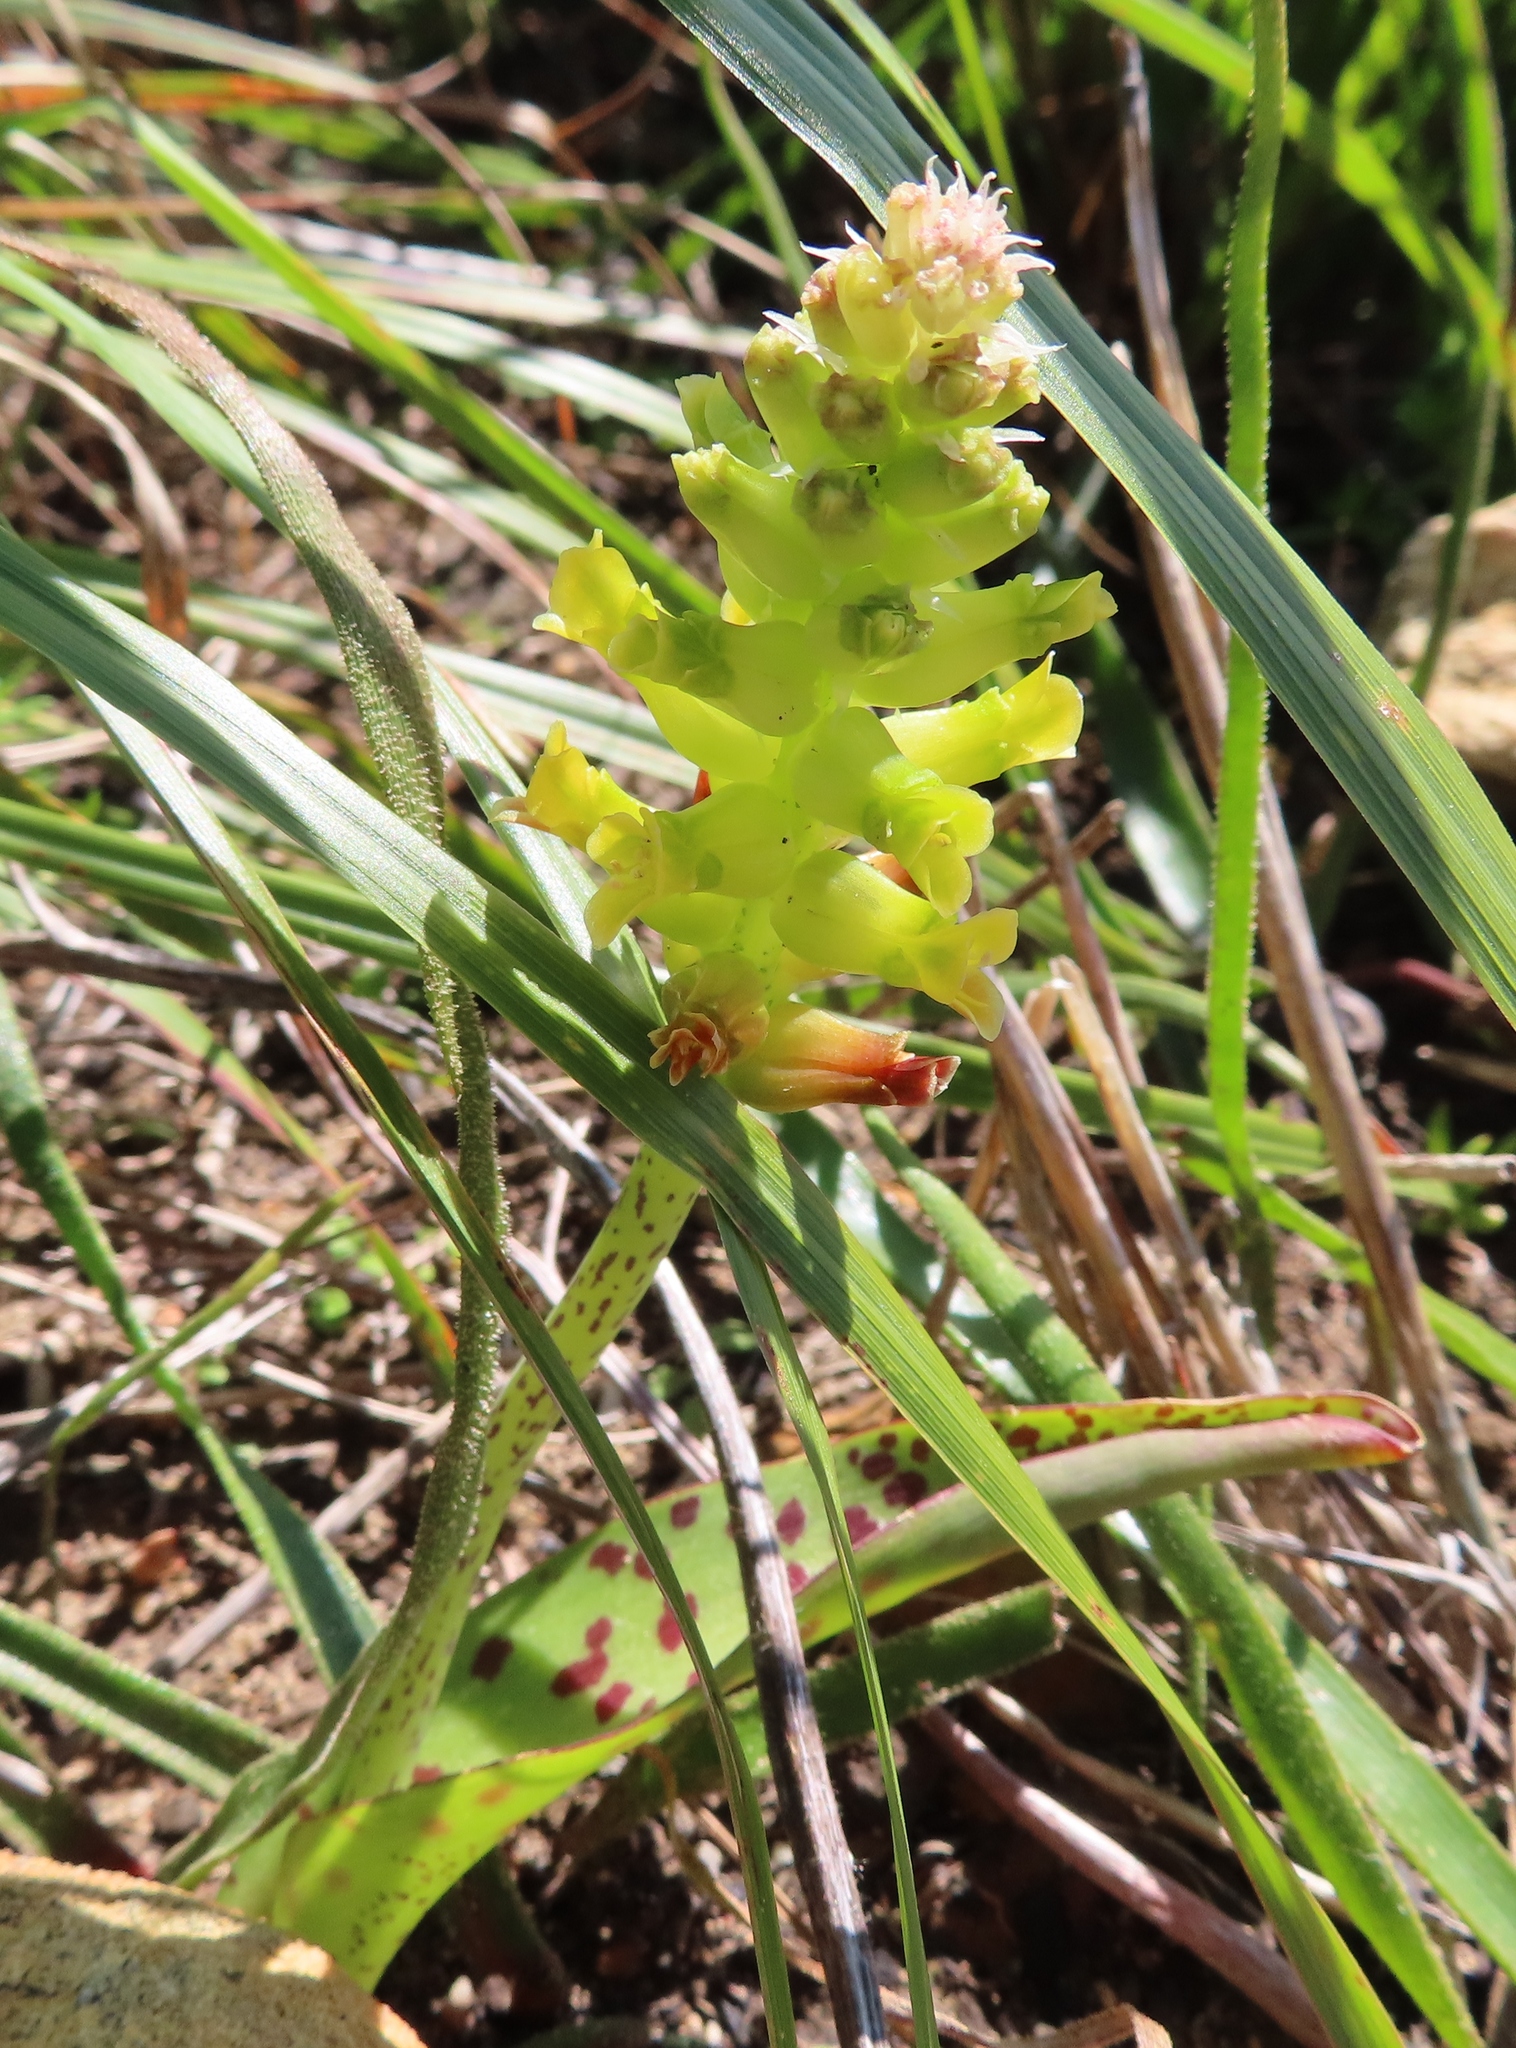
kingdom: Plantae
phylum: Tracheophyta
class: Liliopsida
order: Asparagales
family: Asparagaceae
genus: Lachenalia
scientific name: Lachenalia lutea
